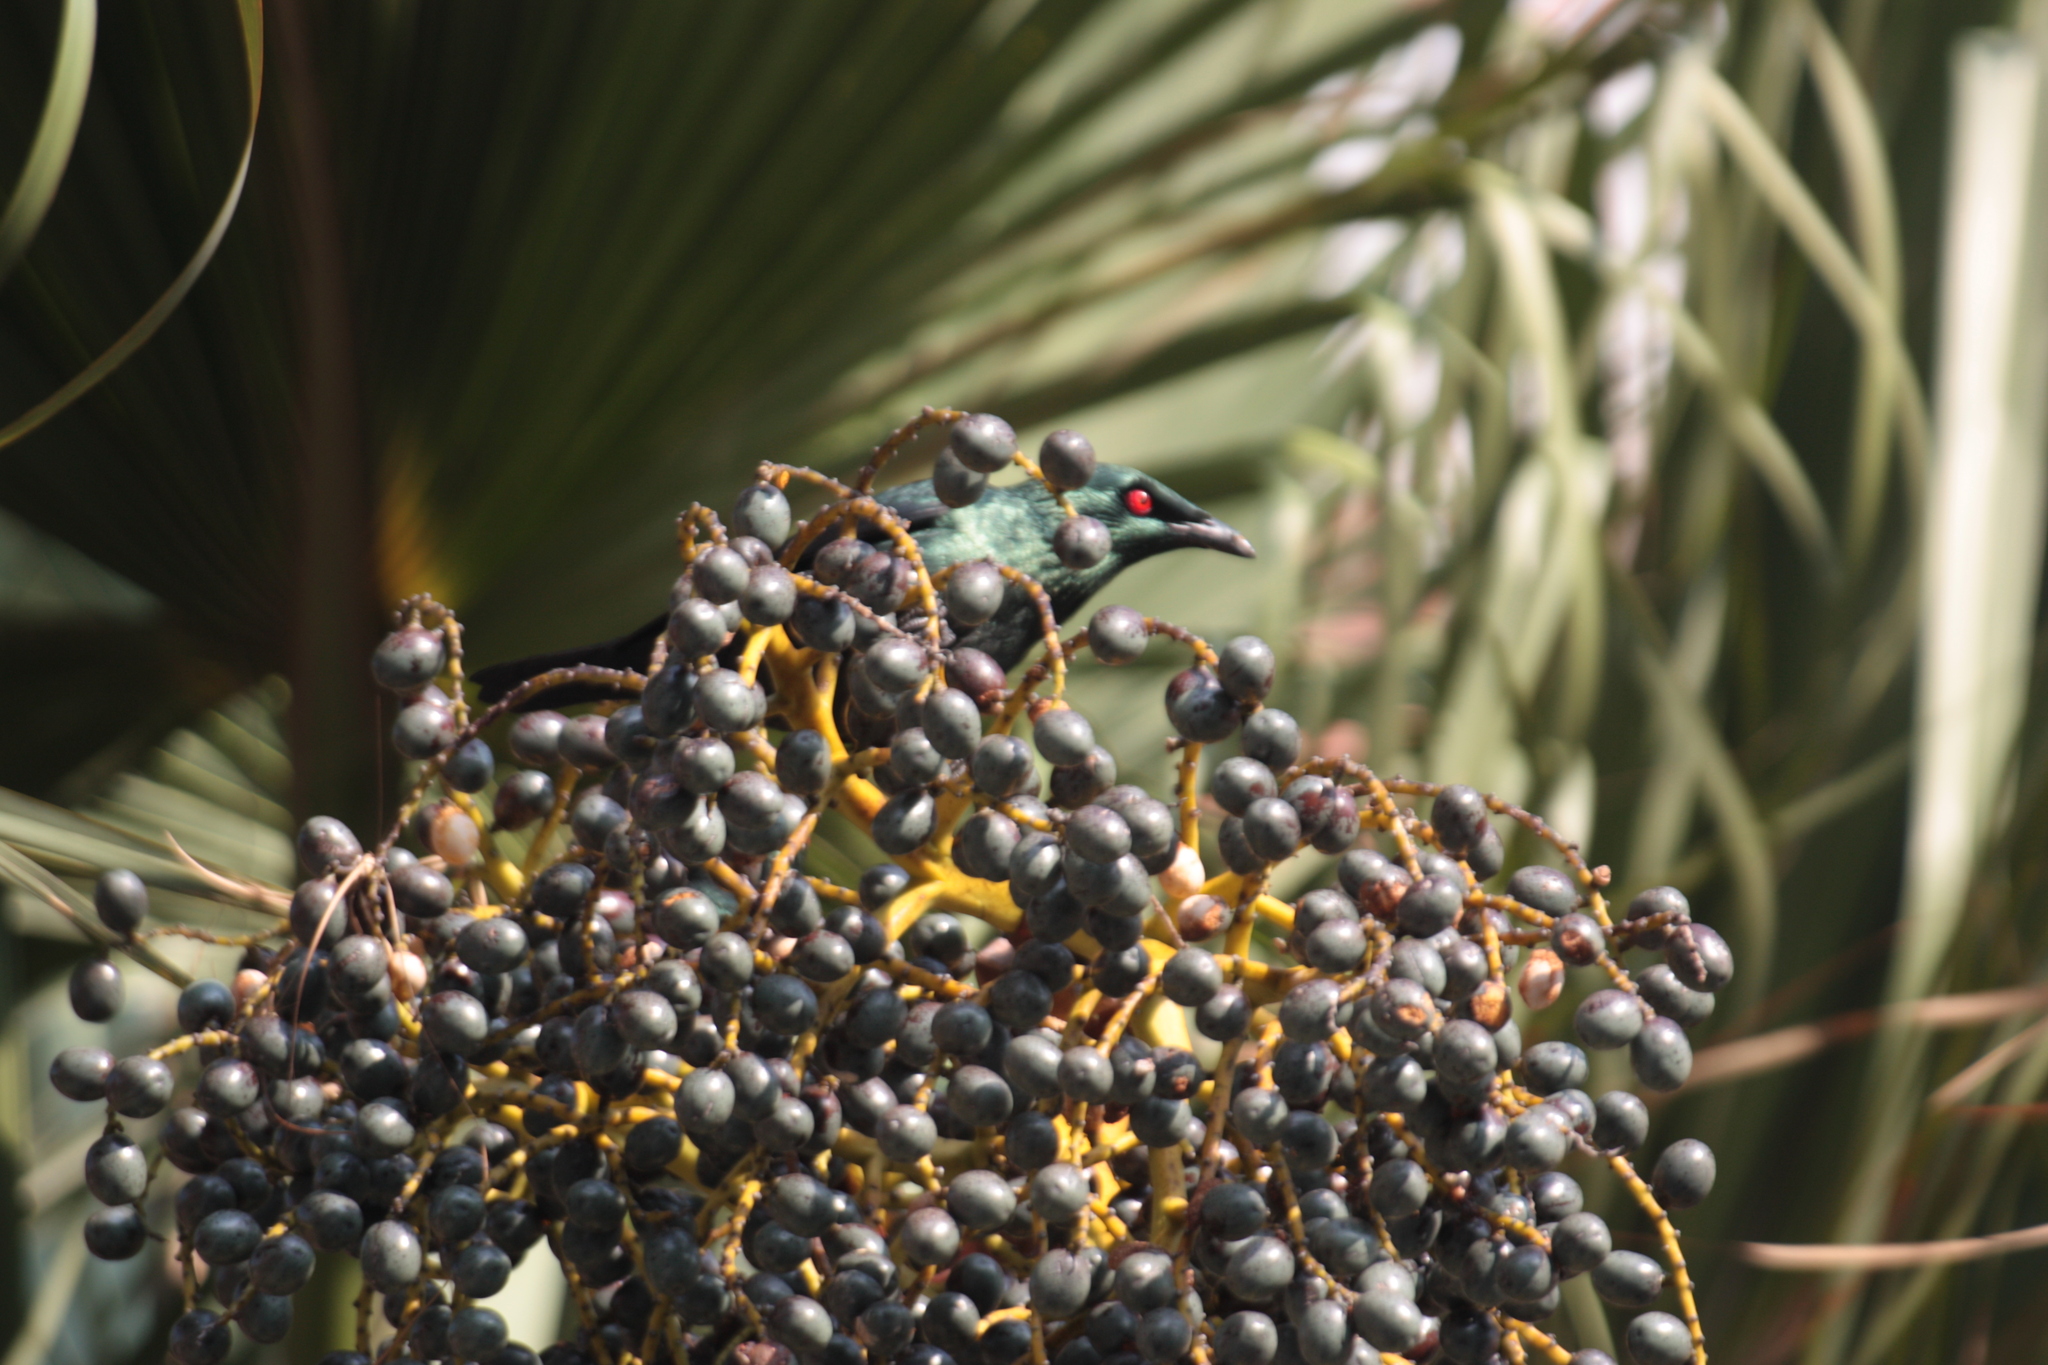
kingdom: Animalia
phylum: Chordata
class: Aves
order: Passeriformes
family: Sturnidae
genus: Aplonis
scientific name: Aplonis panayensis
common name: Asian glossy starling
